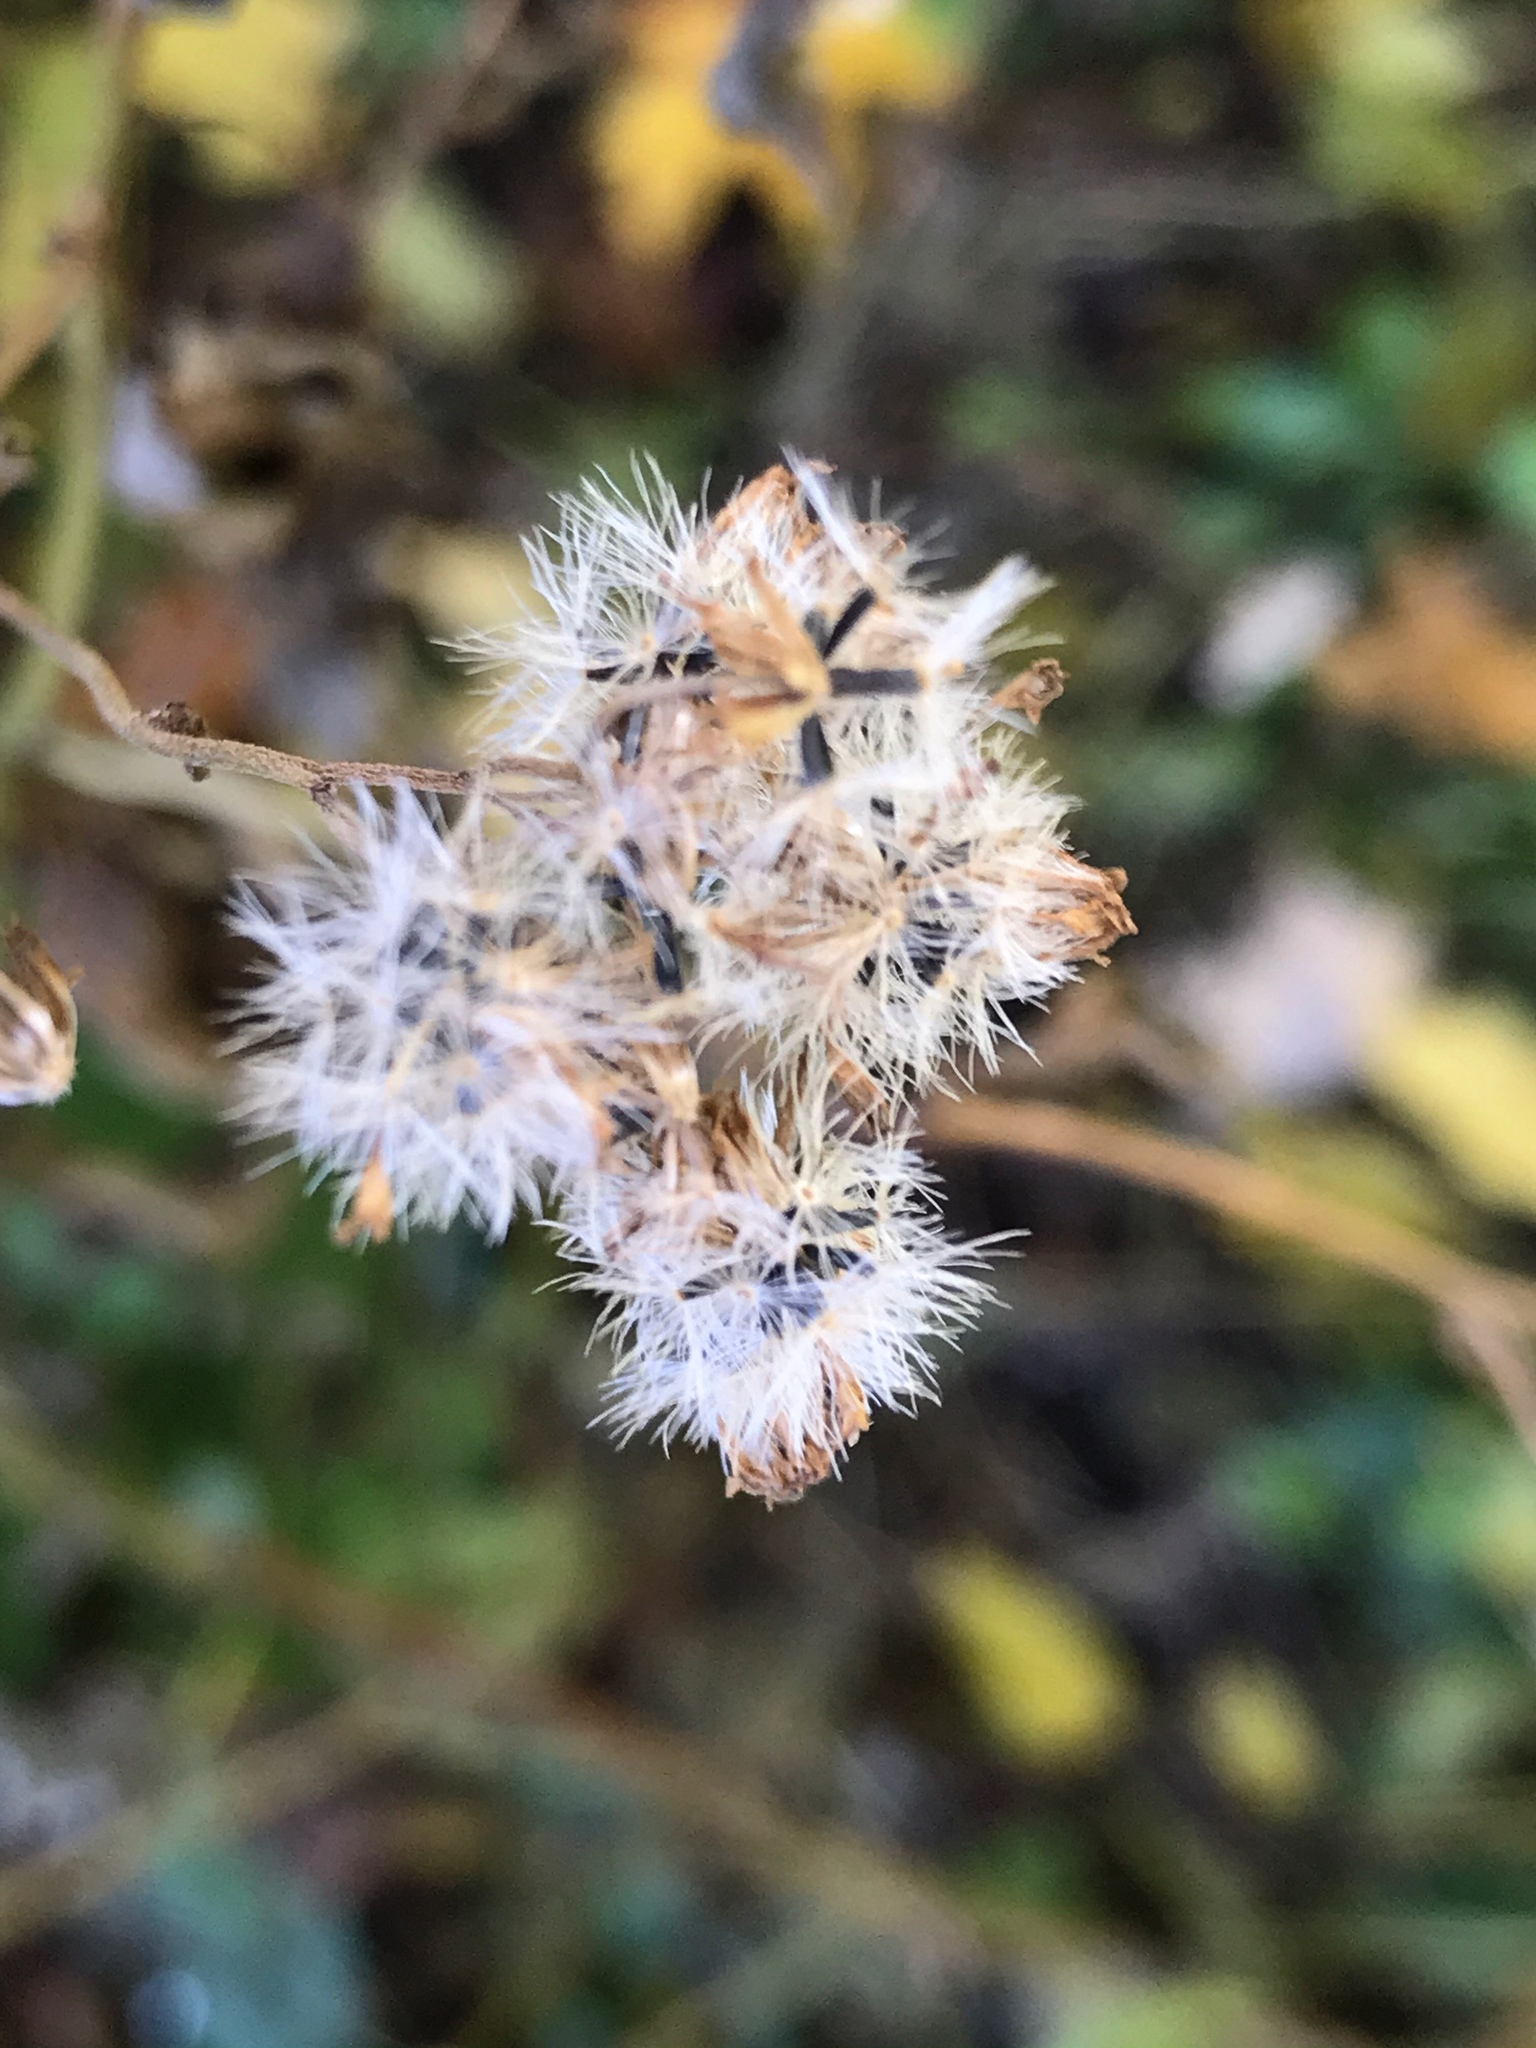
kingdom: Plantae
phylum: Tracheophyta
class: Magnoliopsida
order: Asterales
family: Asteraceae
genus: Ageratina
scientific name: Ageratina altissima
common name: White snakeroot
